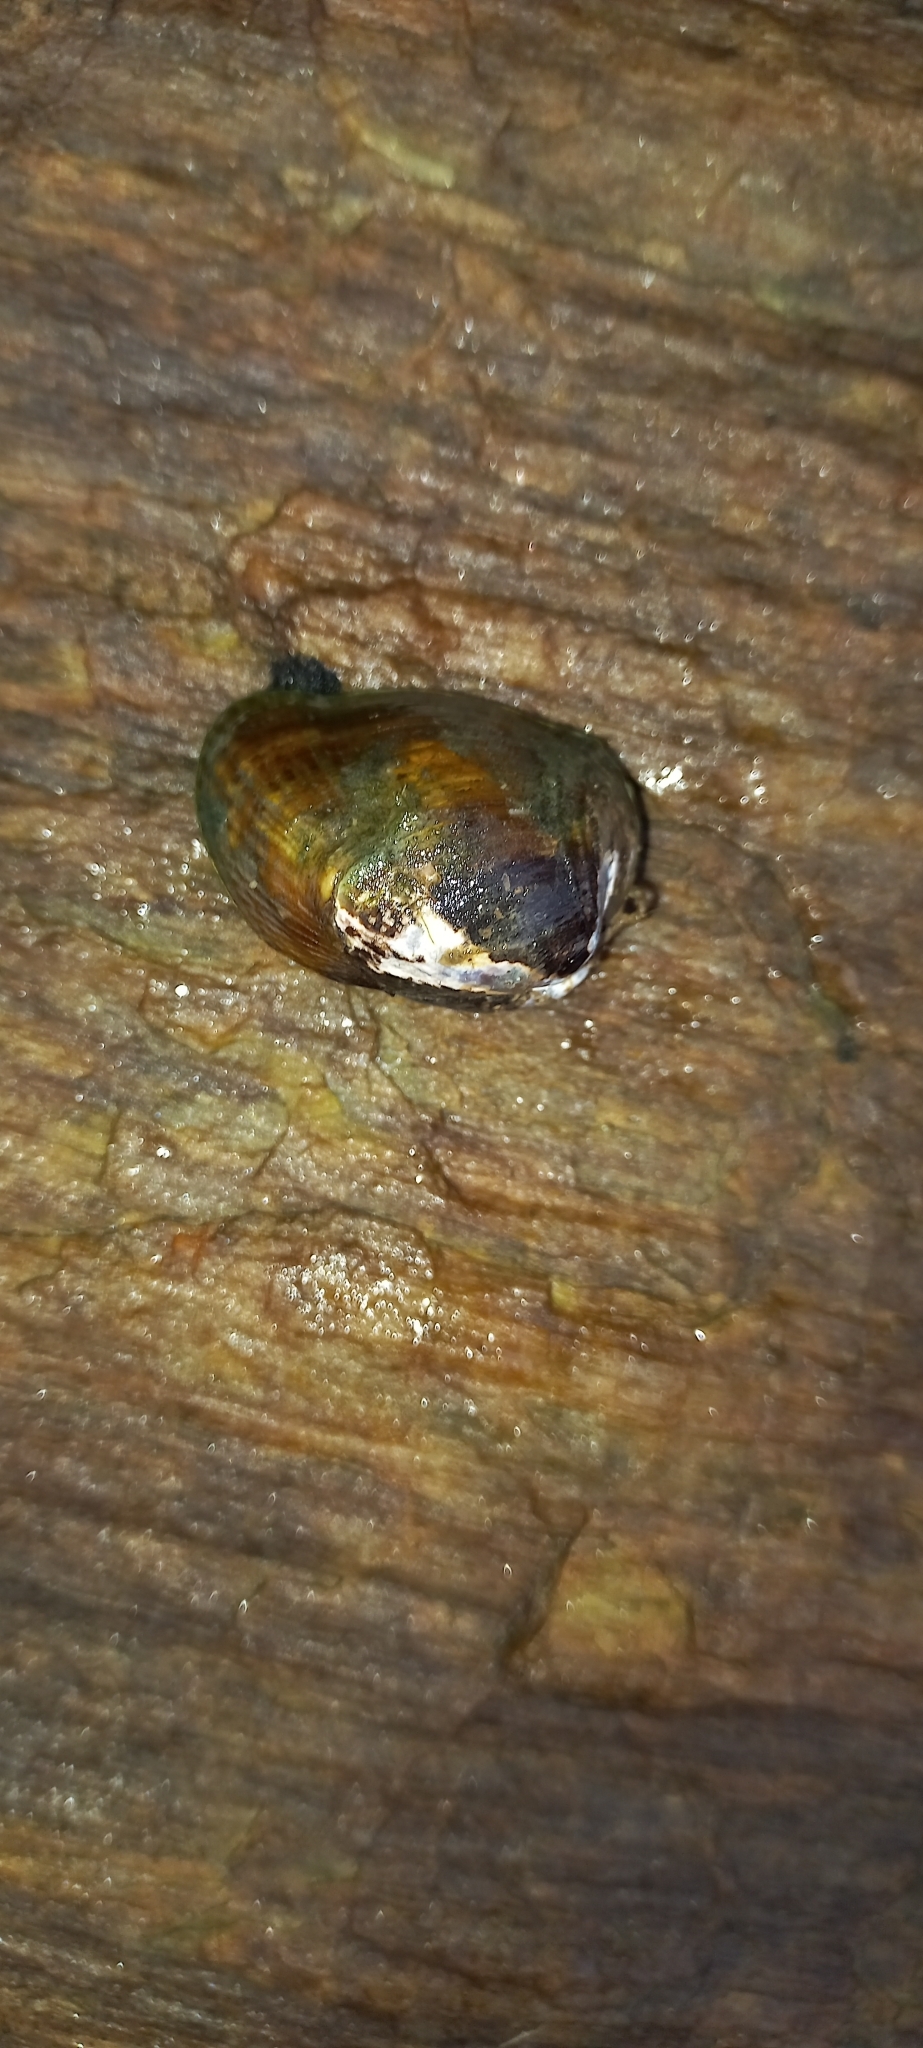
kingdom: Animalia
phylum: Mollusca
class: Bivalvia
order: Mytilida
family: Mytilidae
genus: Musculus
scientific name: Musculus impactus
